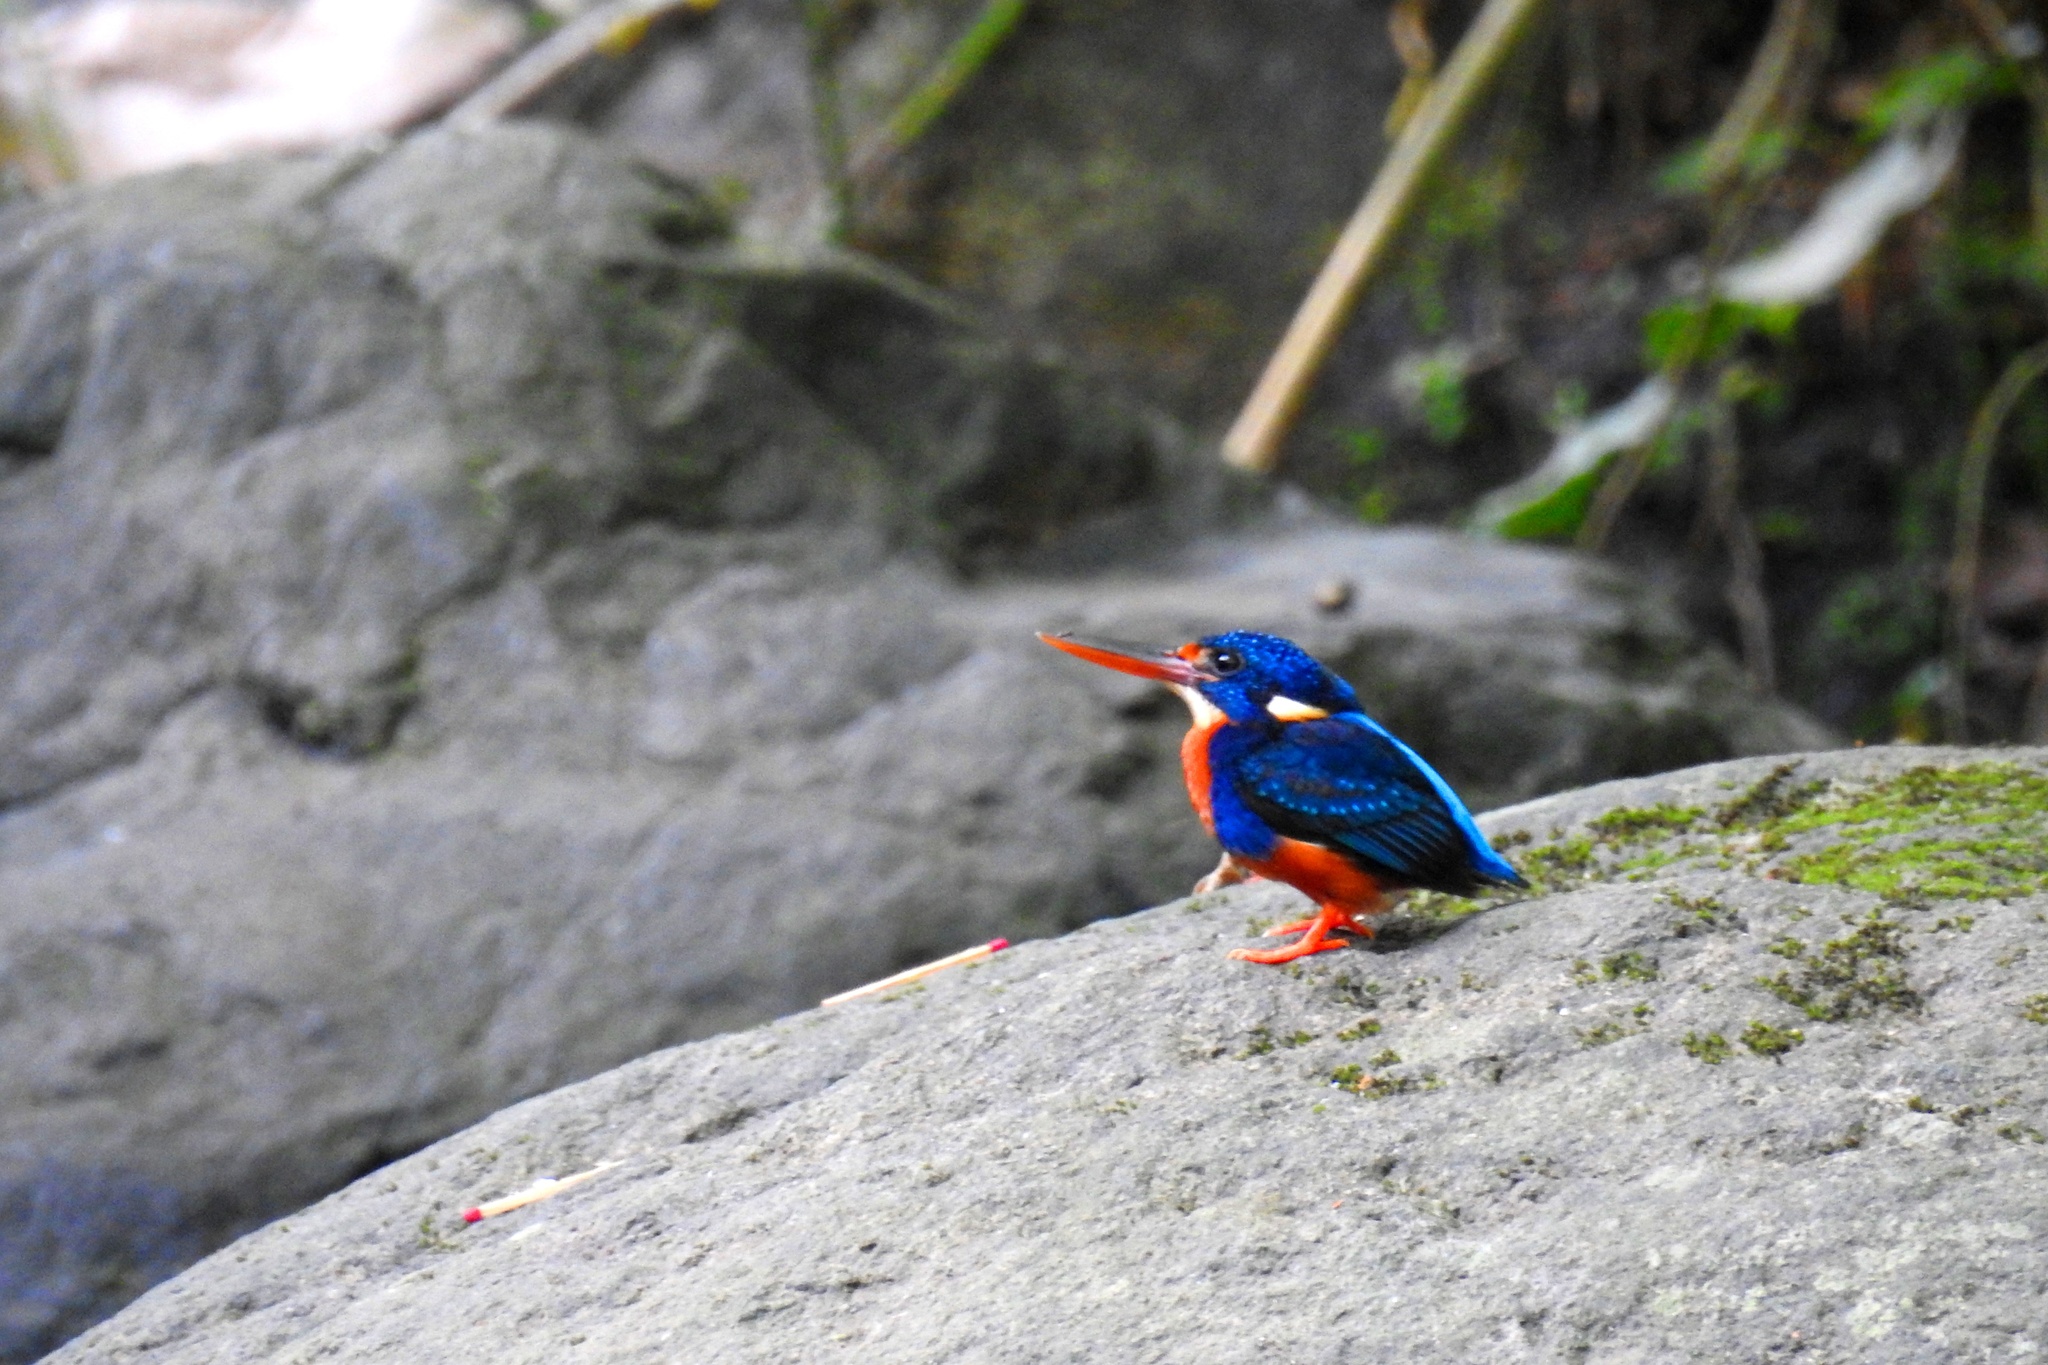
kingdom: Animalia
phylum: Chordata
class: Aves
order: Coraciiformes
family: Alcedinidae
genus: Ceyx
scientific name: Ceyx cyanopectus
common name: Indigo-banded kingfisher
